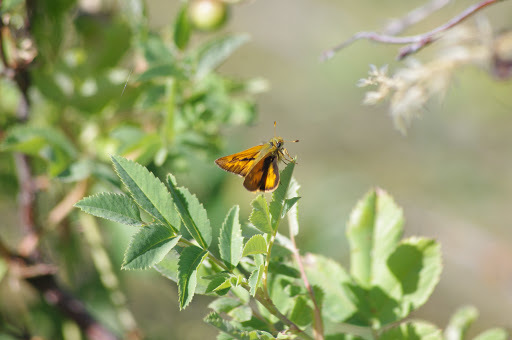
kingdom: Animalia
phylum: Arthropoda
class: Insecta
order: Lepidoptera
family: Hesperiidae
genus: Ochlodes
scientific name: Ochlodes sylvanoides
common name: Woodland skipper
